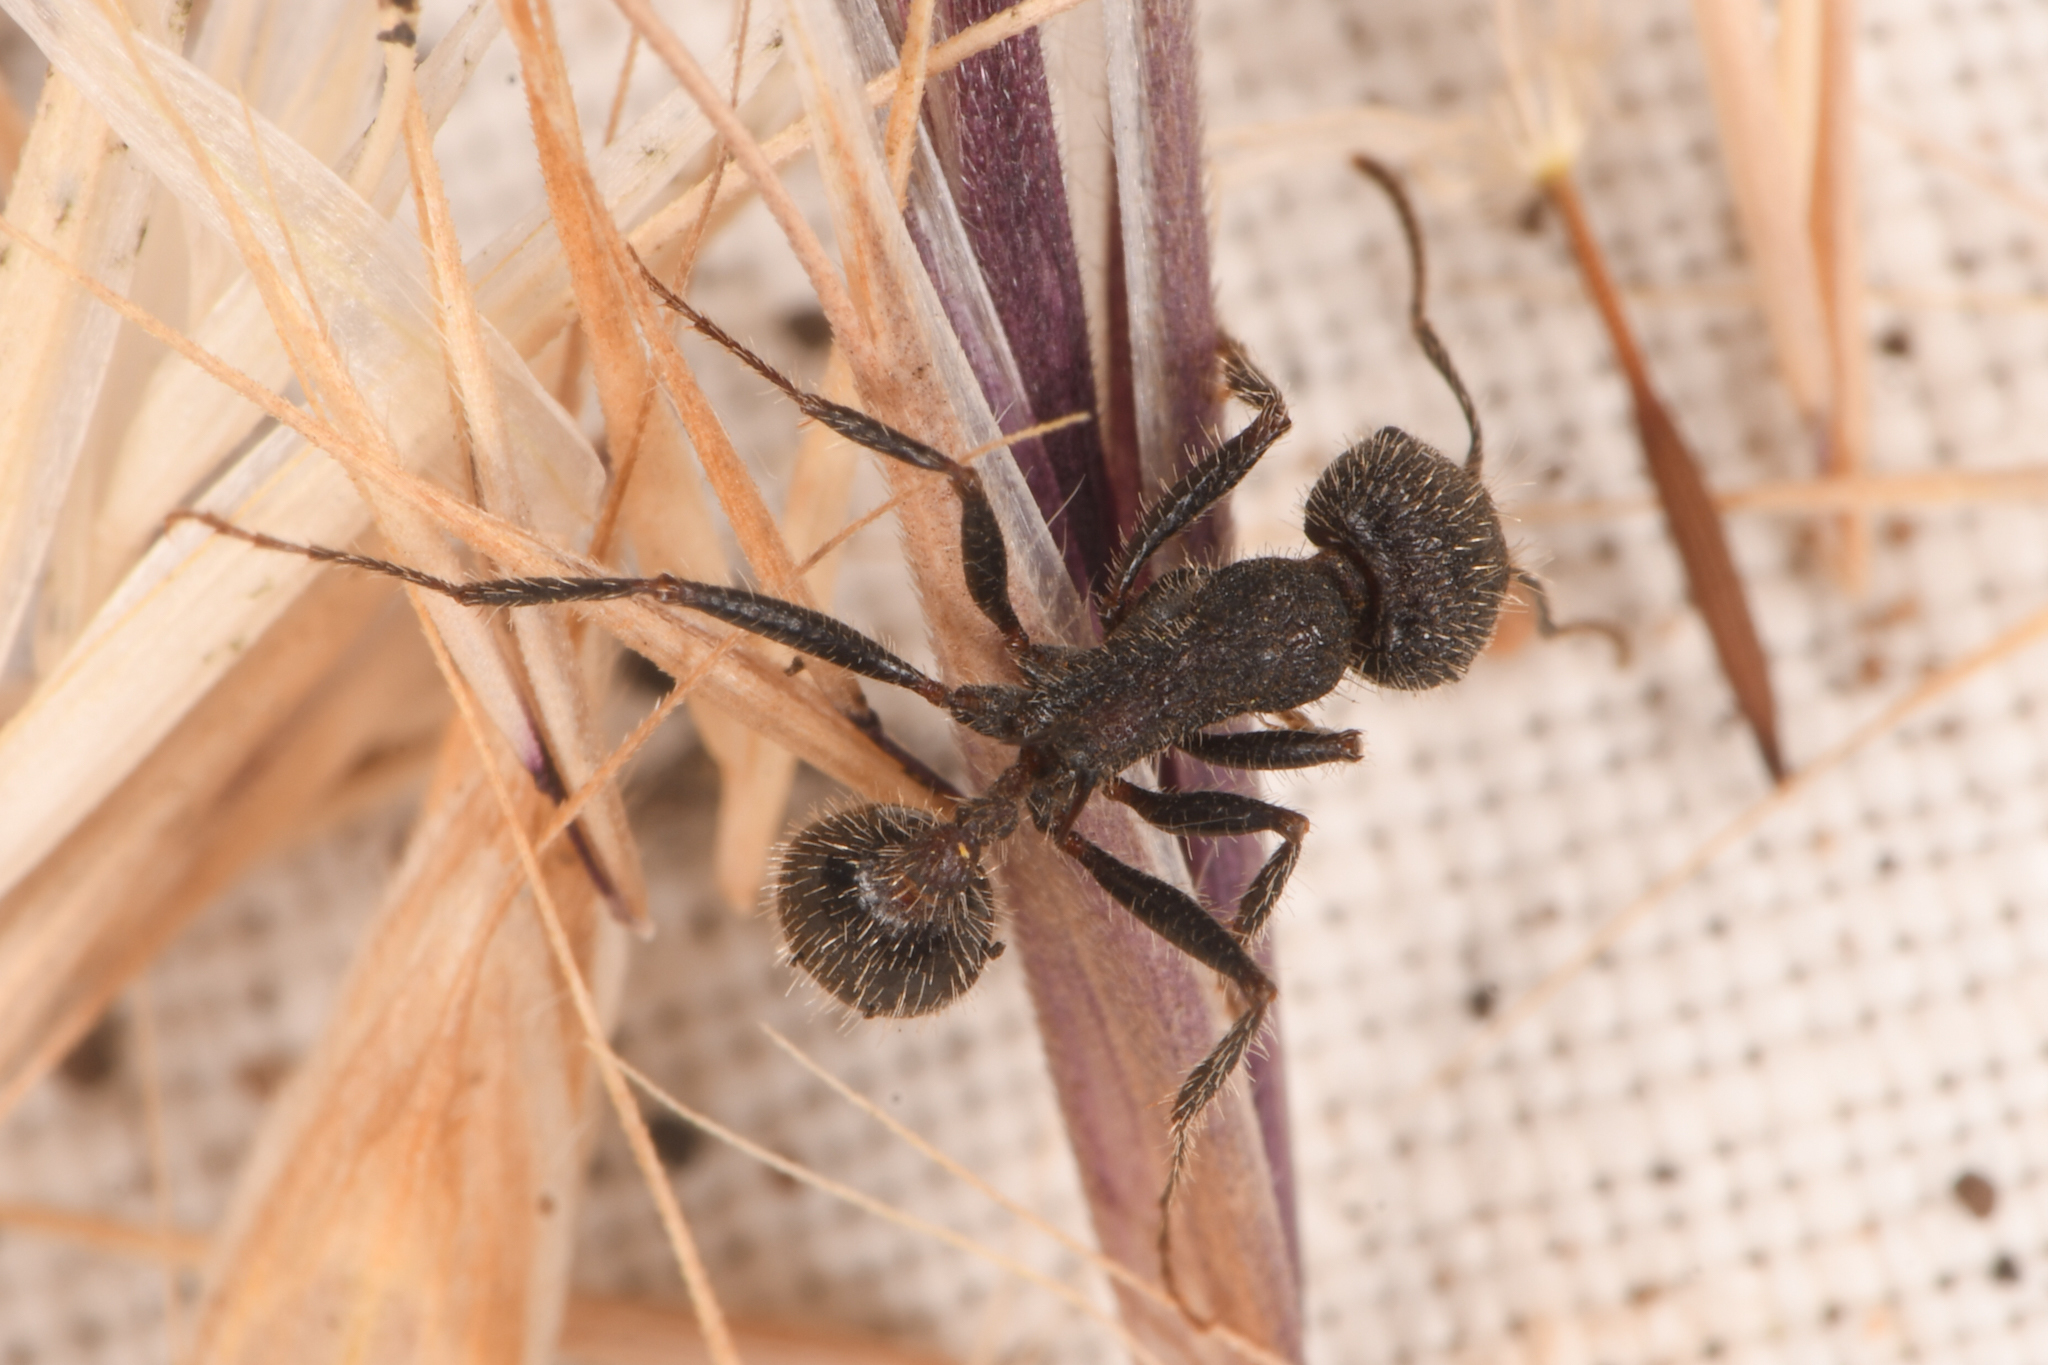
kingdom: Animalia
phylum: Arthropoda
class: Insecta
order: Hymenoptera
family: Formicidae
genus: Veromessor
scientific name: Veromessor andrei
